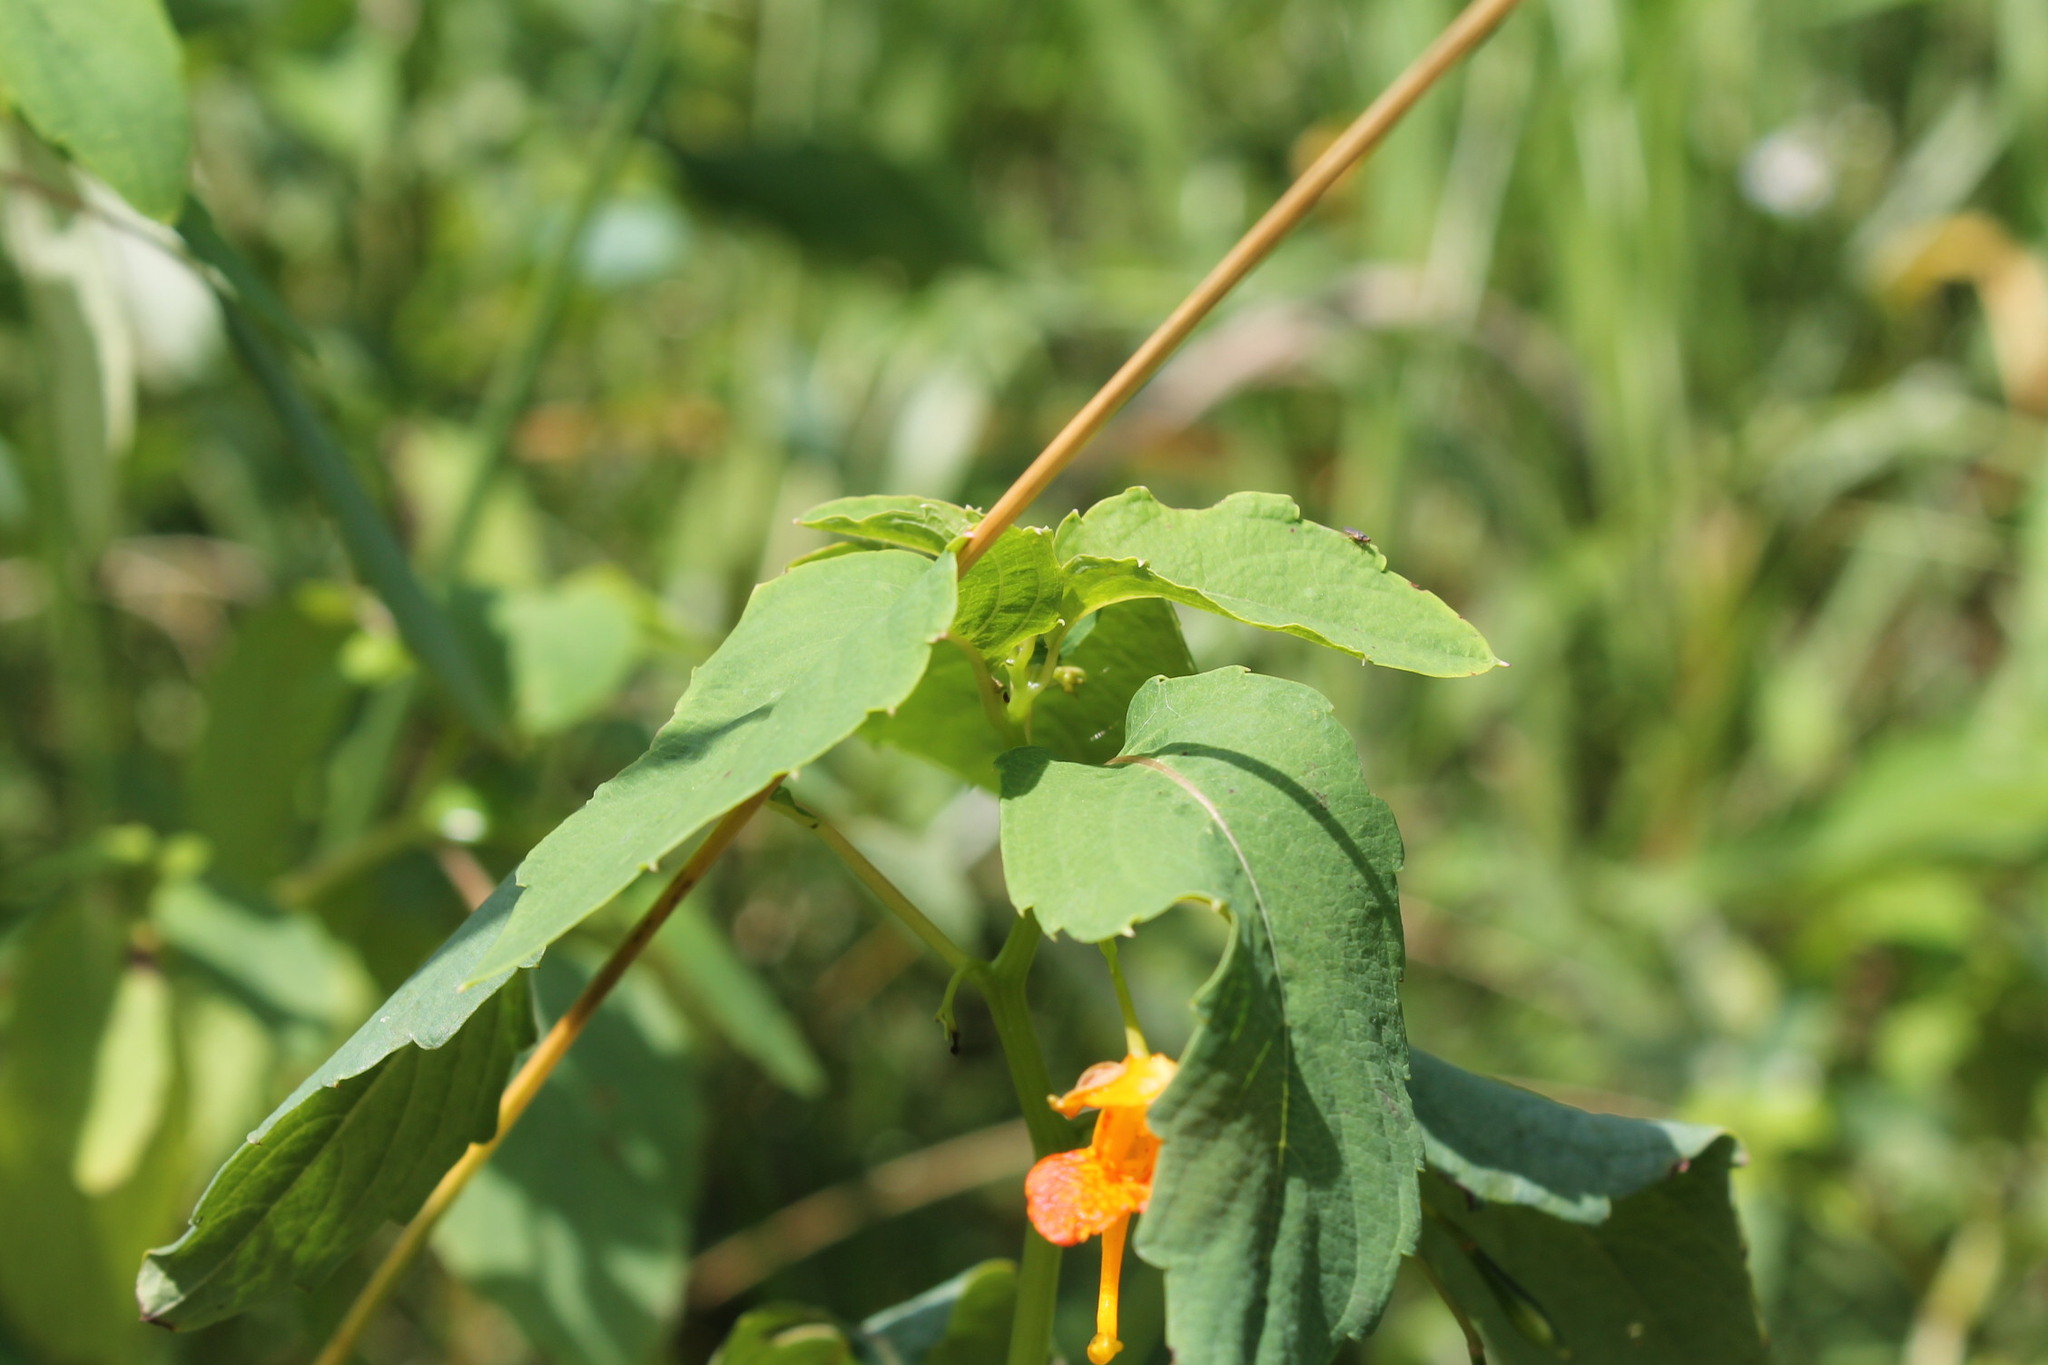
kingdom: Plantae
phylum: Tracheophyta
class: Magnoliopsida
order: Ericales
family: Balsaminaceae
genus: Impatiens
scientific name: Impatiens capensis
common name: Orange balsam
